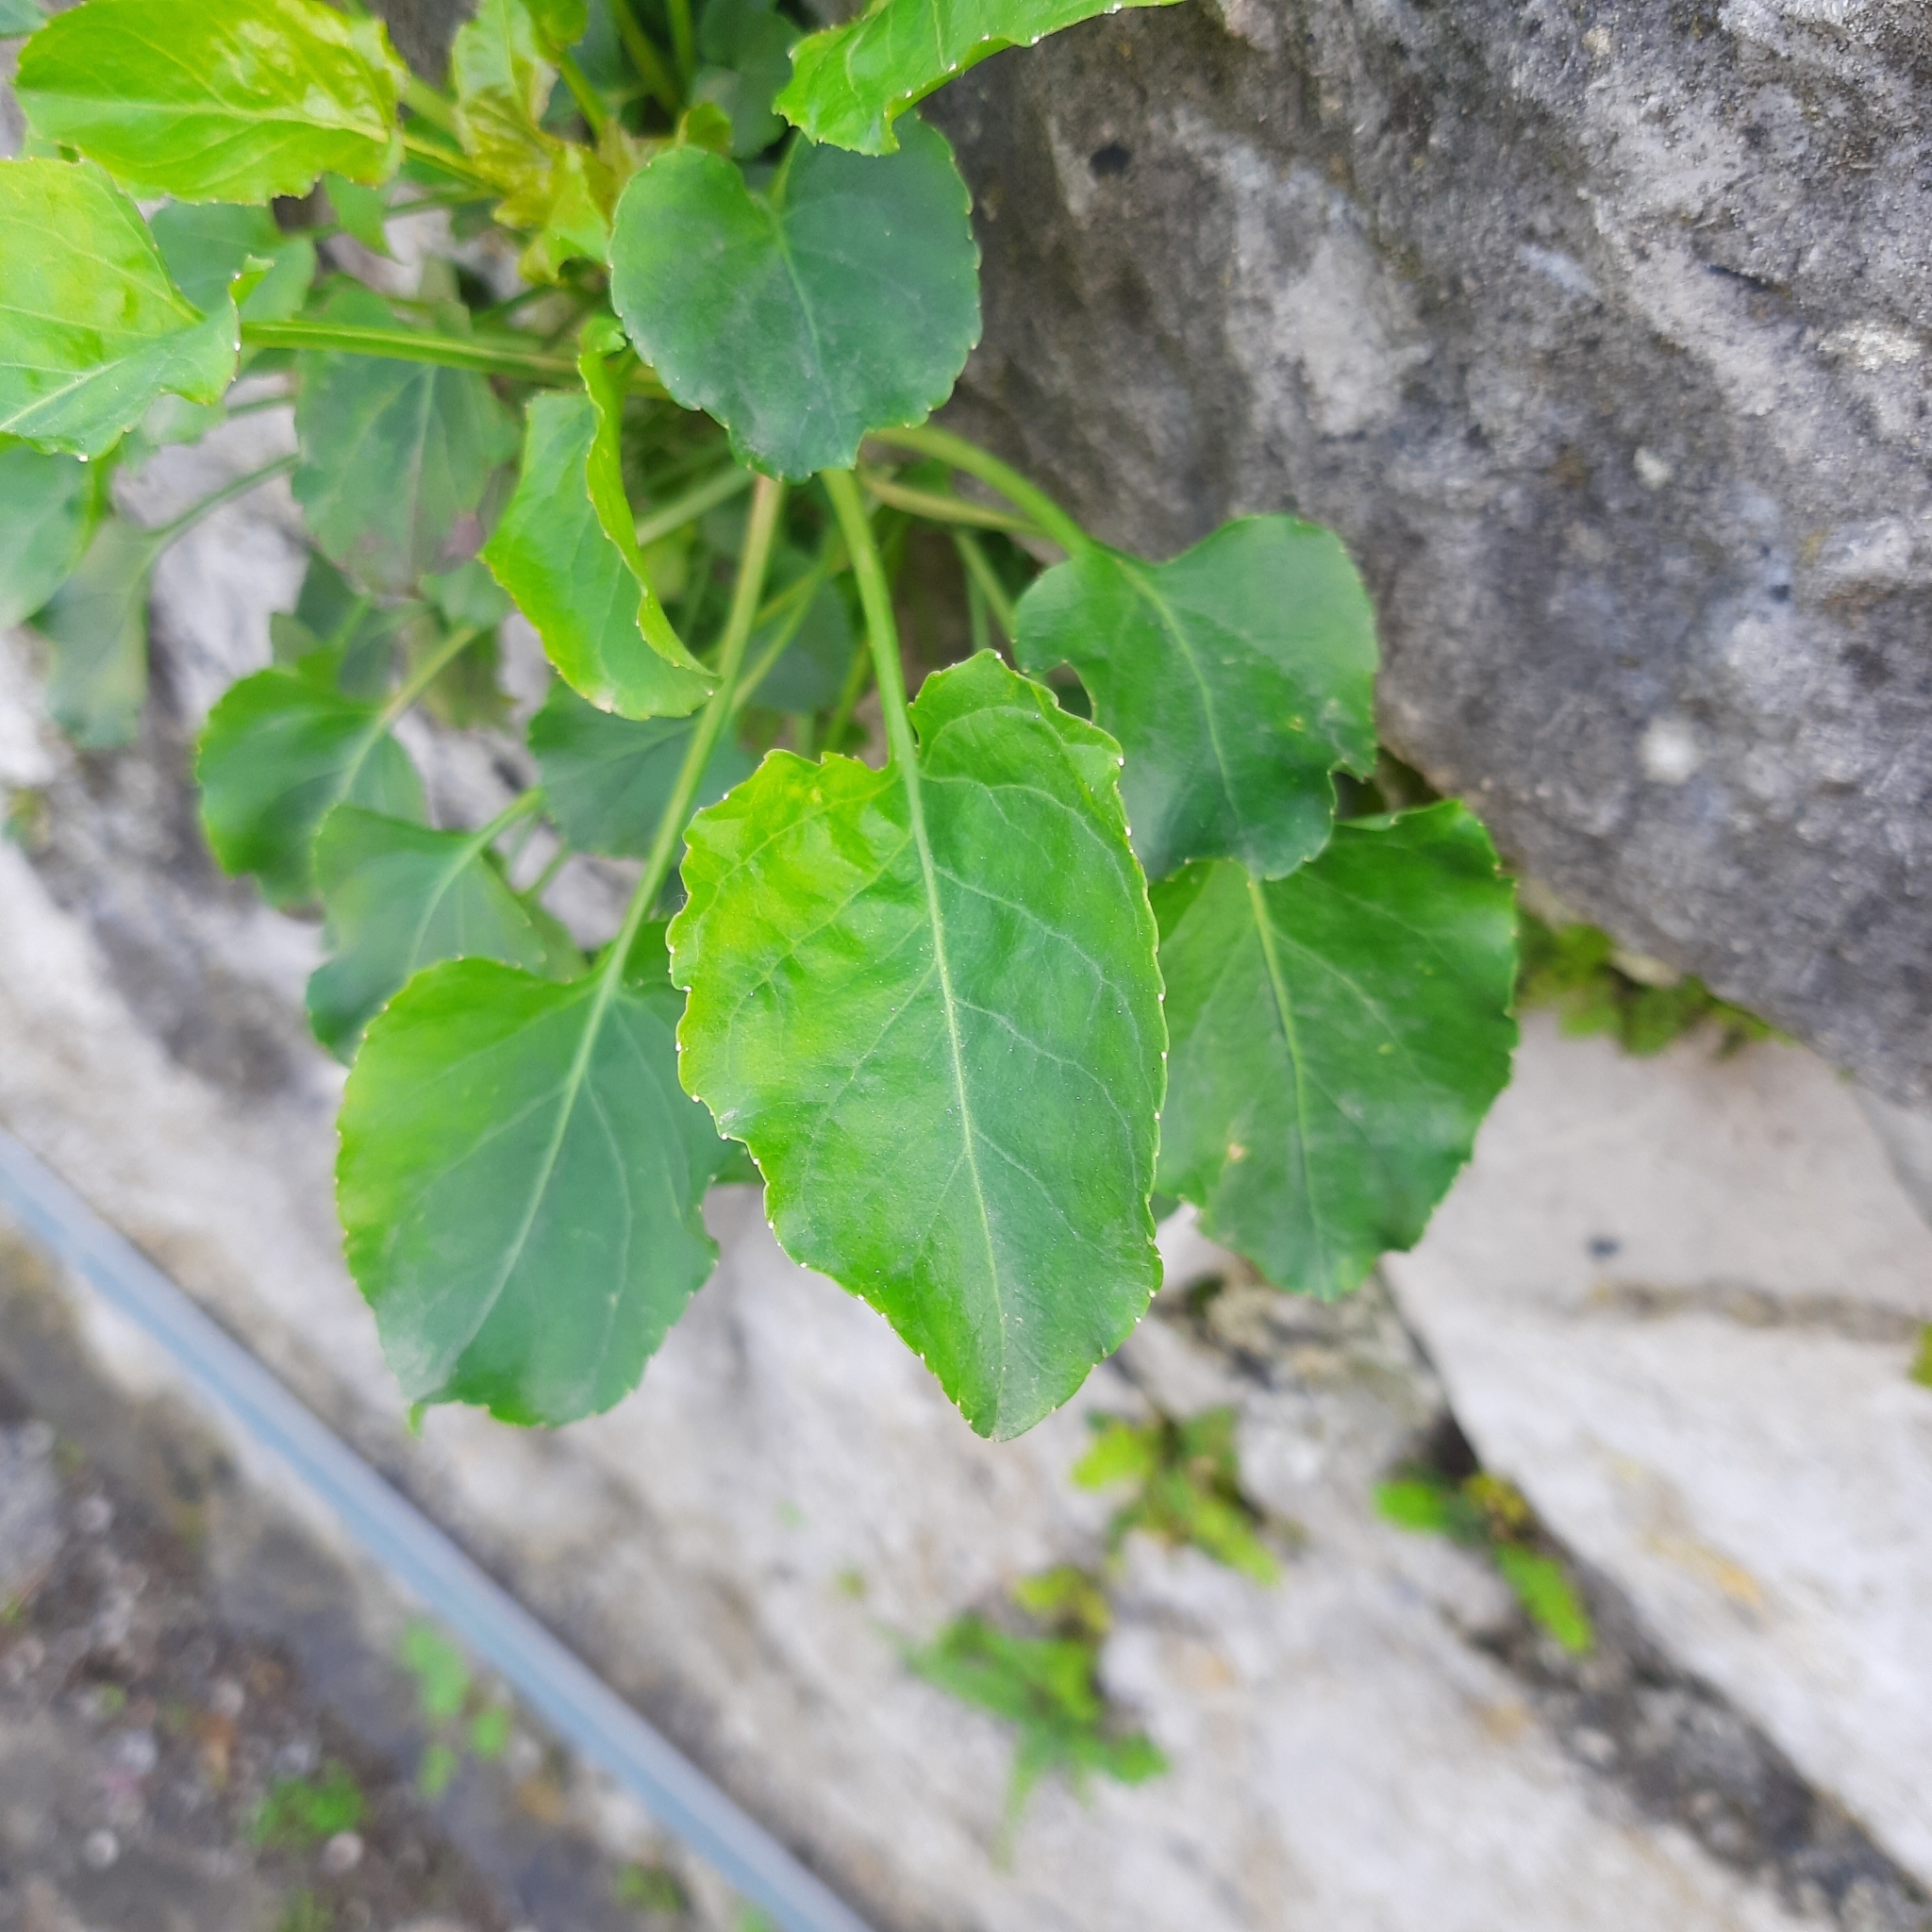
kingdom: Plantae
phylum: Tracheophyta
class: Magnoliopsida
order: Asterales
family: Campanulaceae
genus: Campanula
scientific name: Campanula pyramidalis
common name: Chimney bellflower
